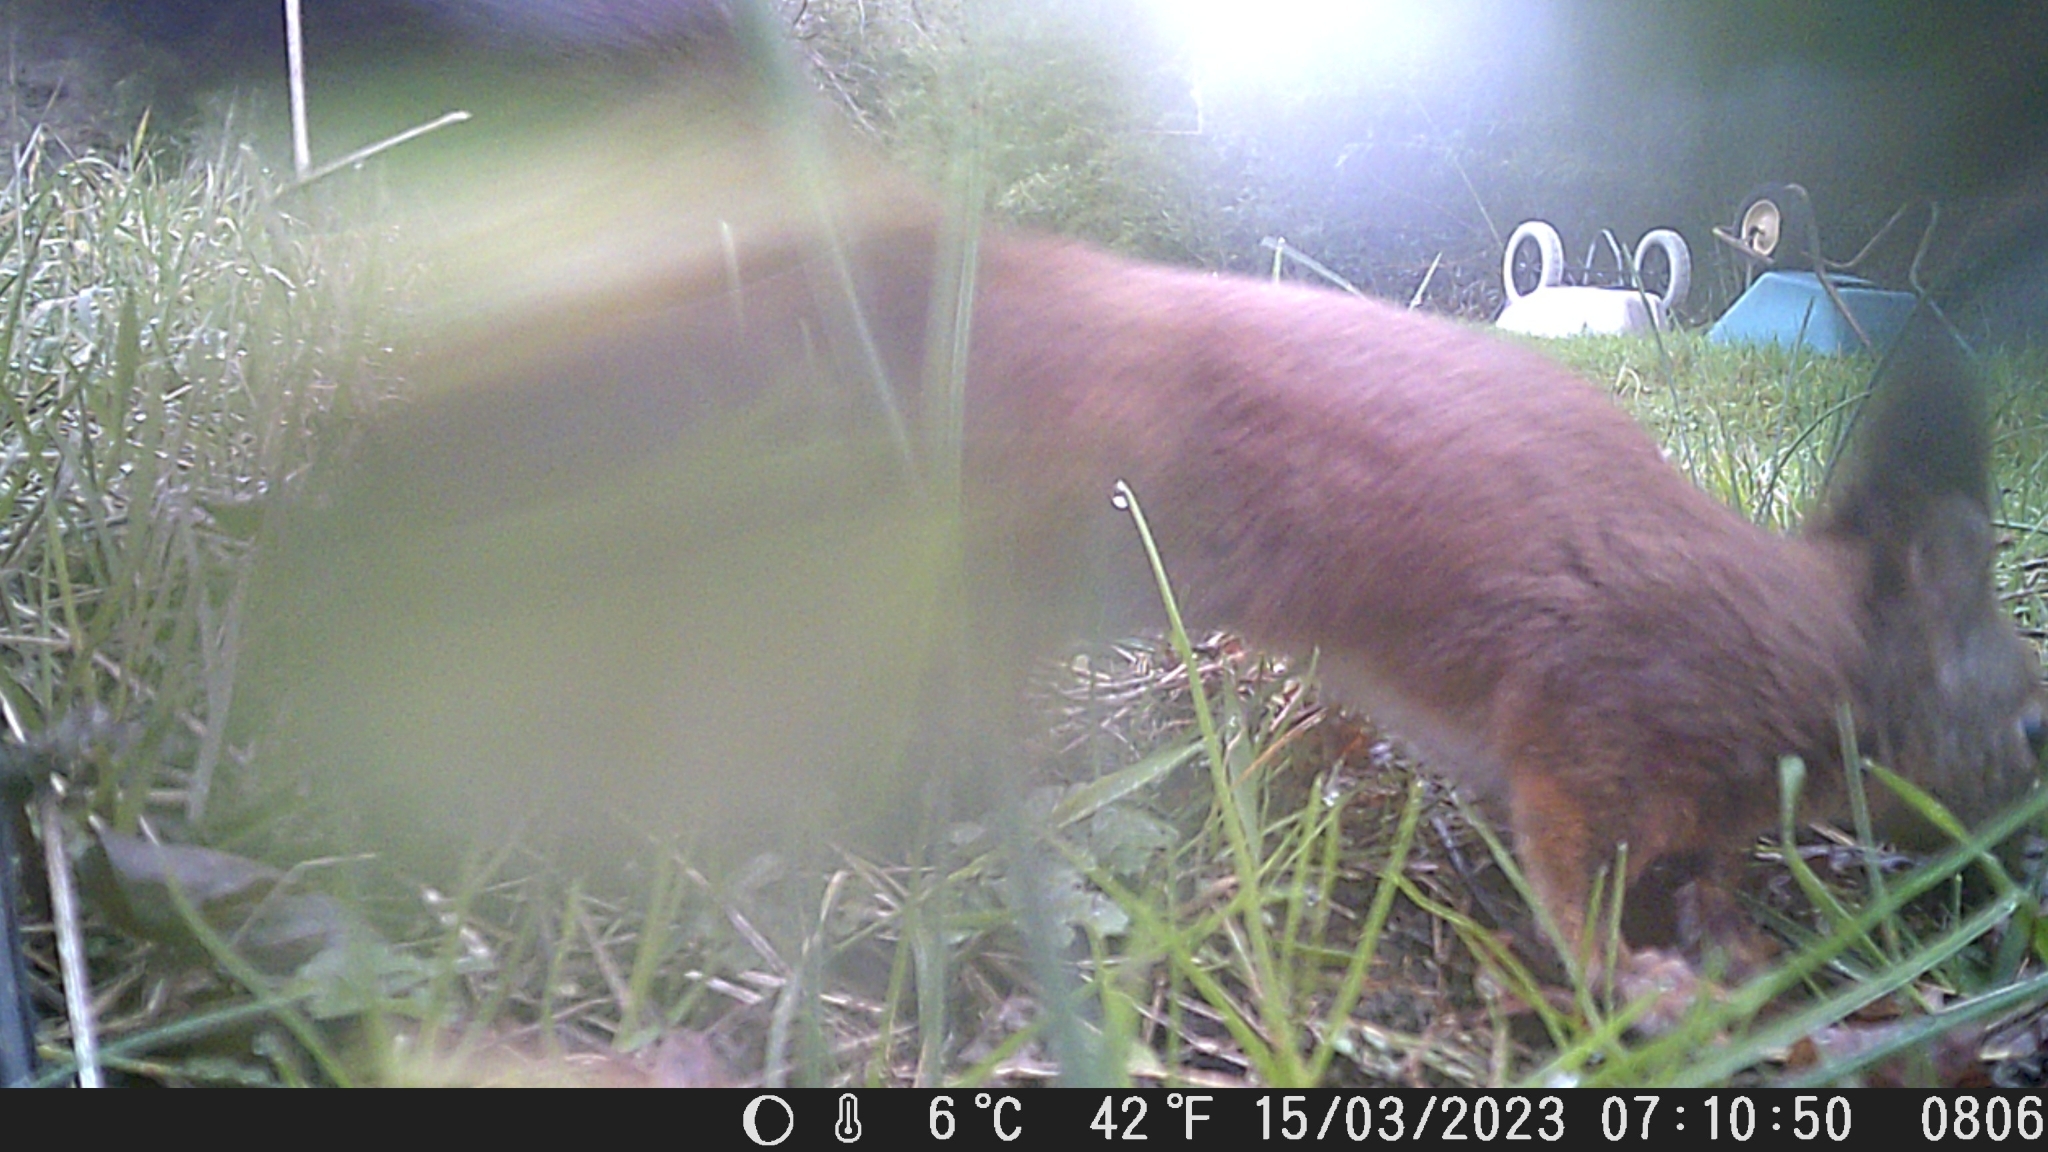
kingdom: Animalia
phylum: Chordata
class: Mammalia
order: Rodentia
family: Sciuridae
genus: Sciurus
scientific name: Sciurus vulgaris
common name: Eurasian red squirrel
